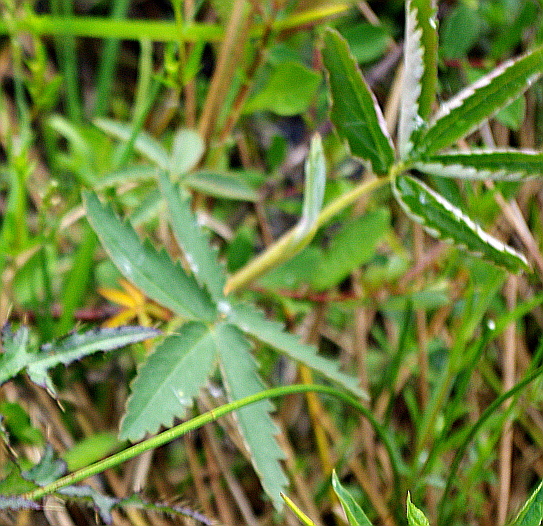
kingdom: Plantae
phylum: Tracheophyta
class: Magnoliopsida
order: Rosales
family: Rosaceae
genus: Comarum
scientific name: Comarum palustre
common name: Marsh cinquefoil
